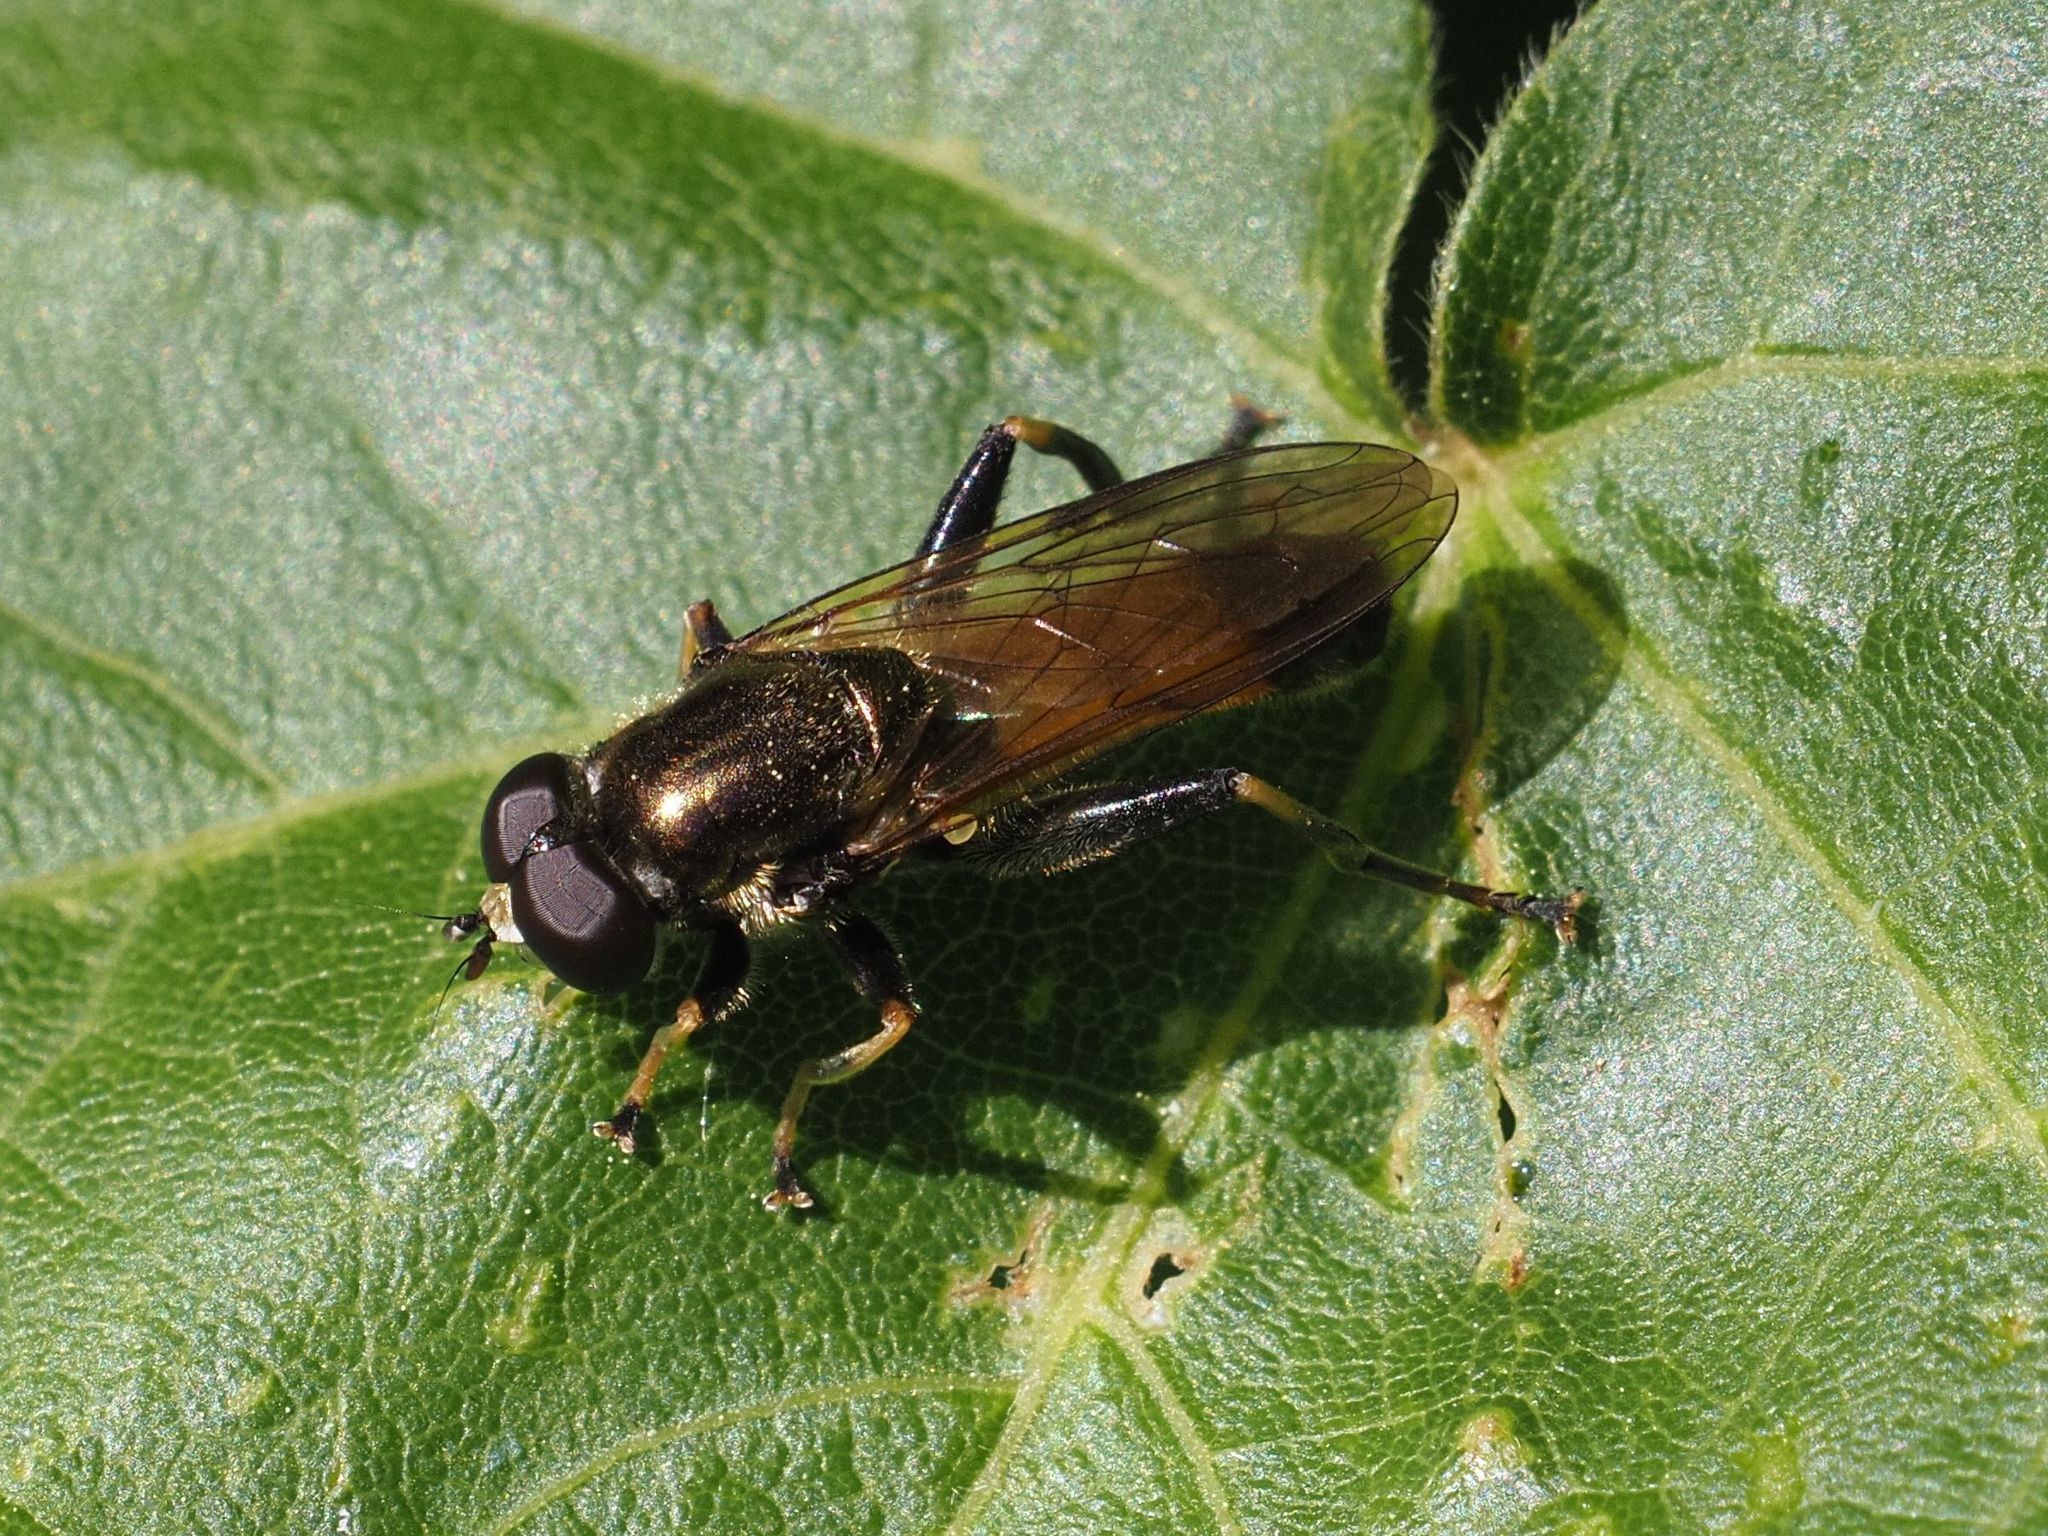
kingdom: Animalia
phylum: Arthropoda
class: Insecta
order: Diptera
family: Syrphidae
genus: Xylota
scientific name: Xylota segnis
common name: Brown-toed forest fly
